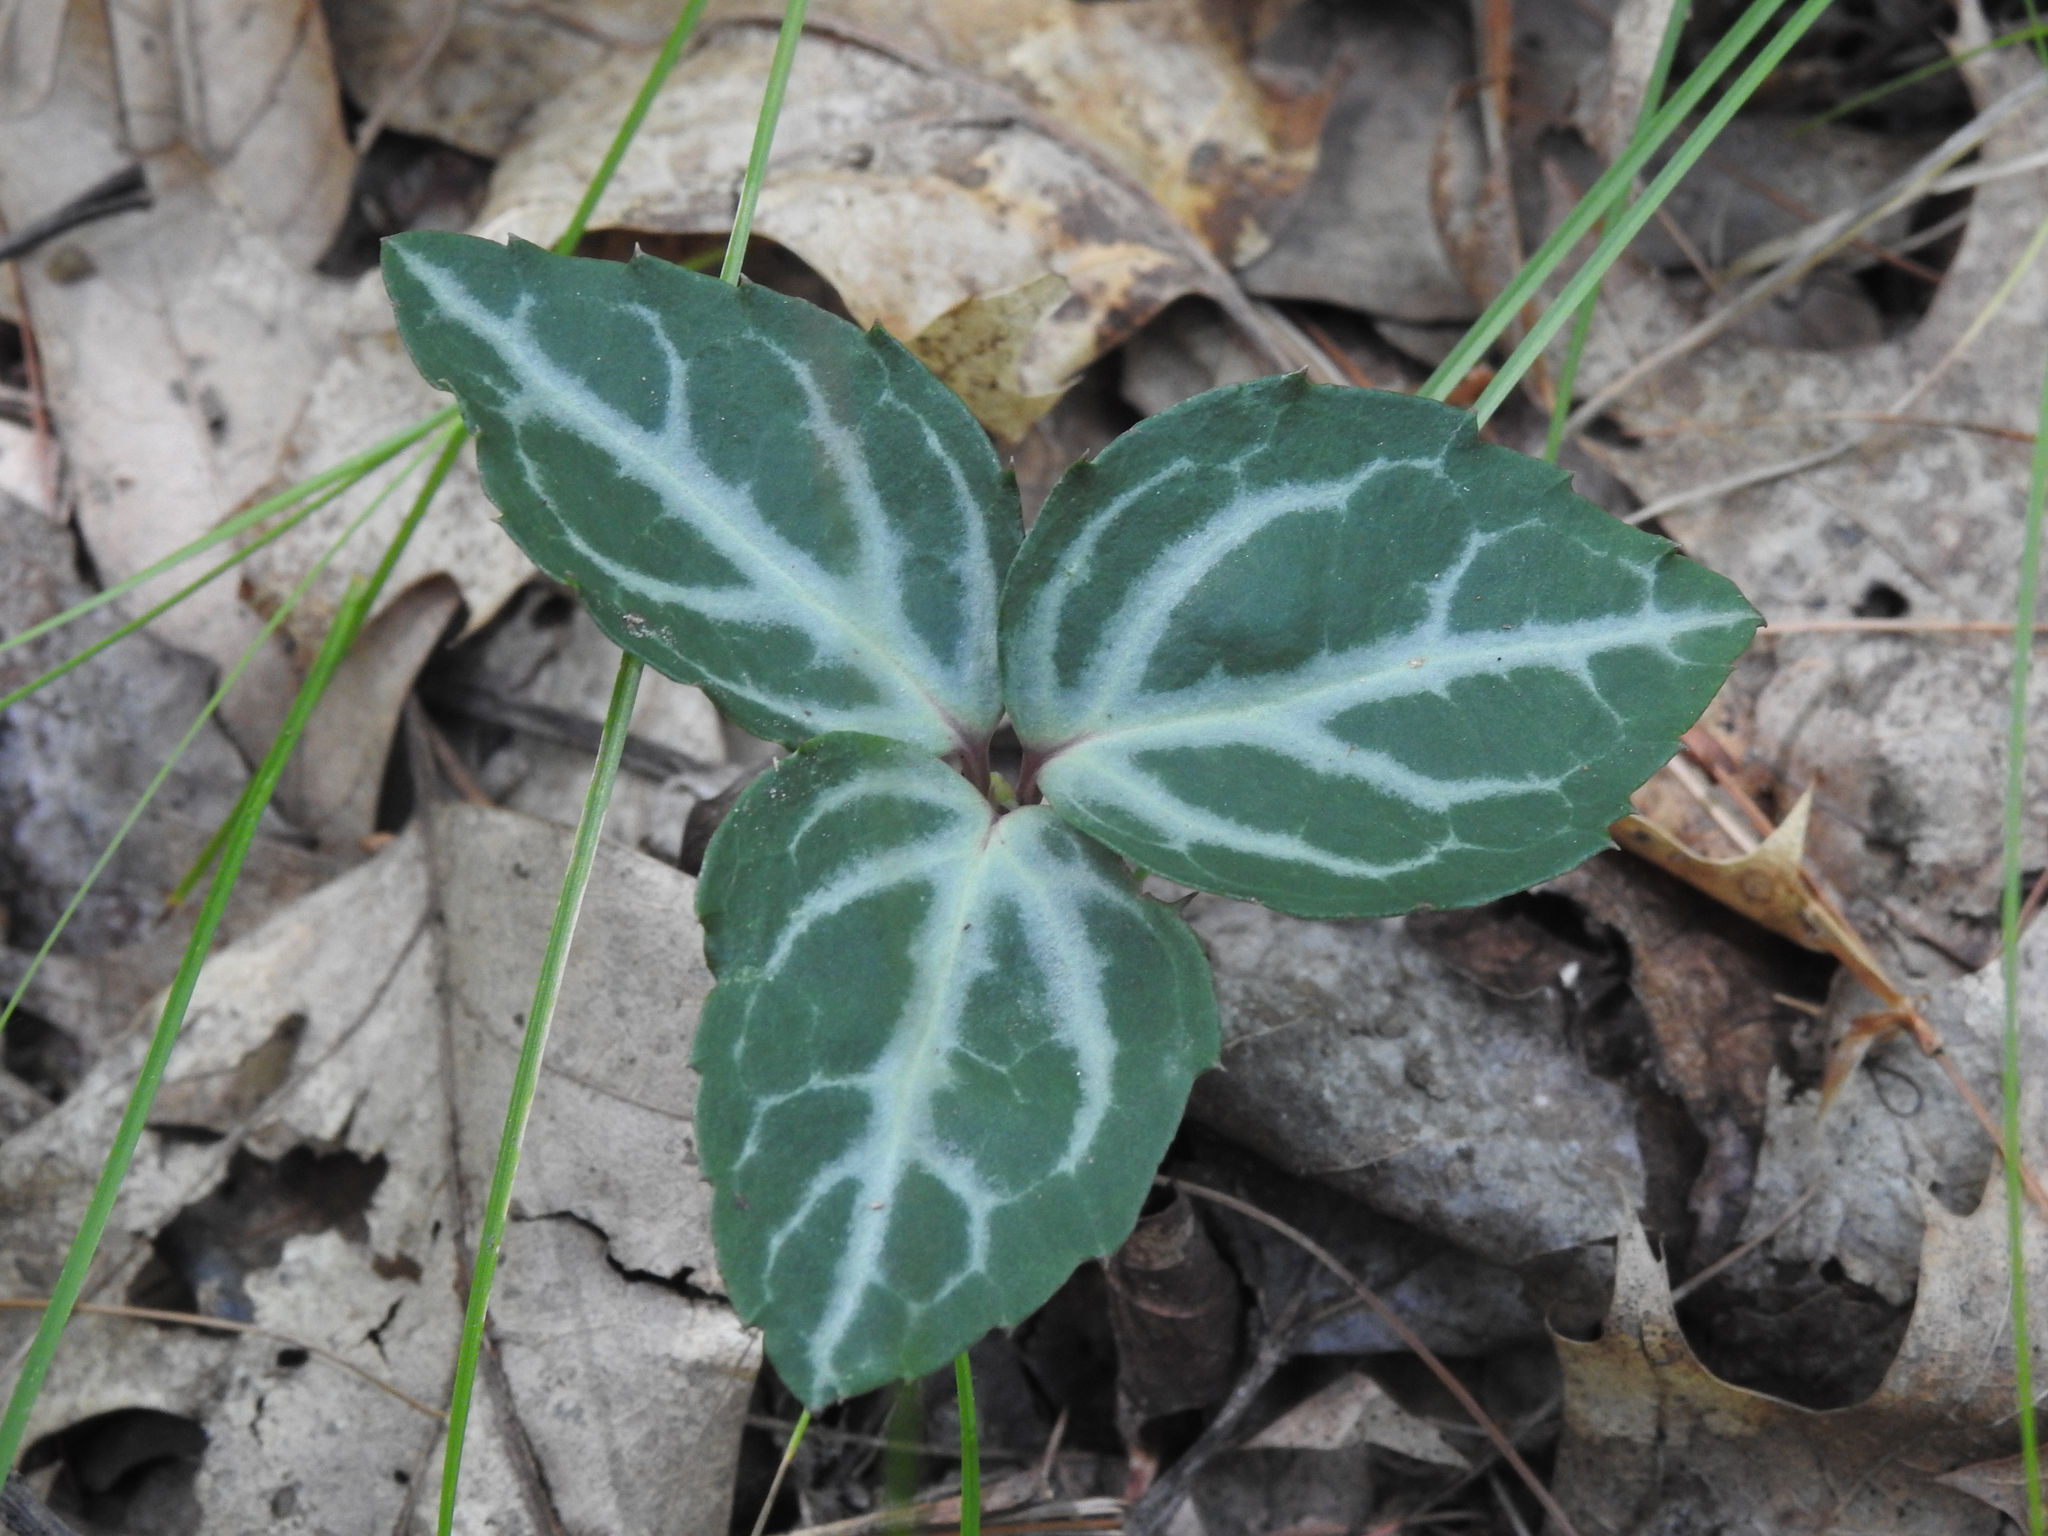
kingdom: Plantae
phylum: Tracheophyta
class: Magnoliopsida
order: Ericales
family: Ericaceae
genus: Chimaphila
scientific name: Chimaphila maculata
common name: Spotted pipsissewa
